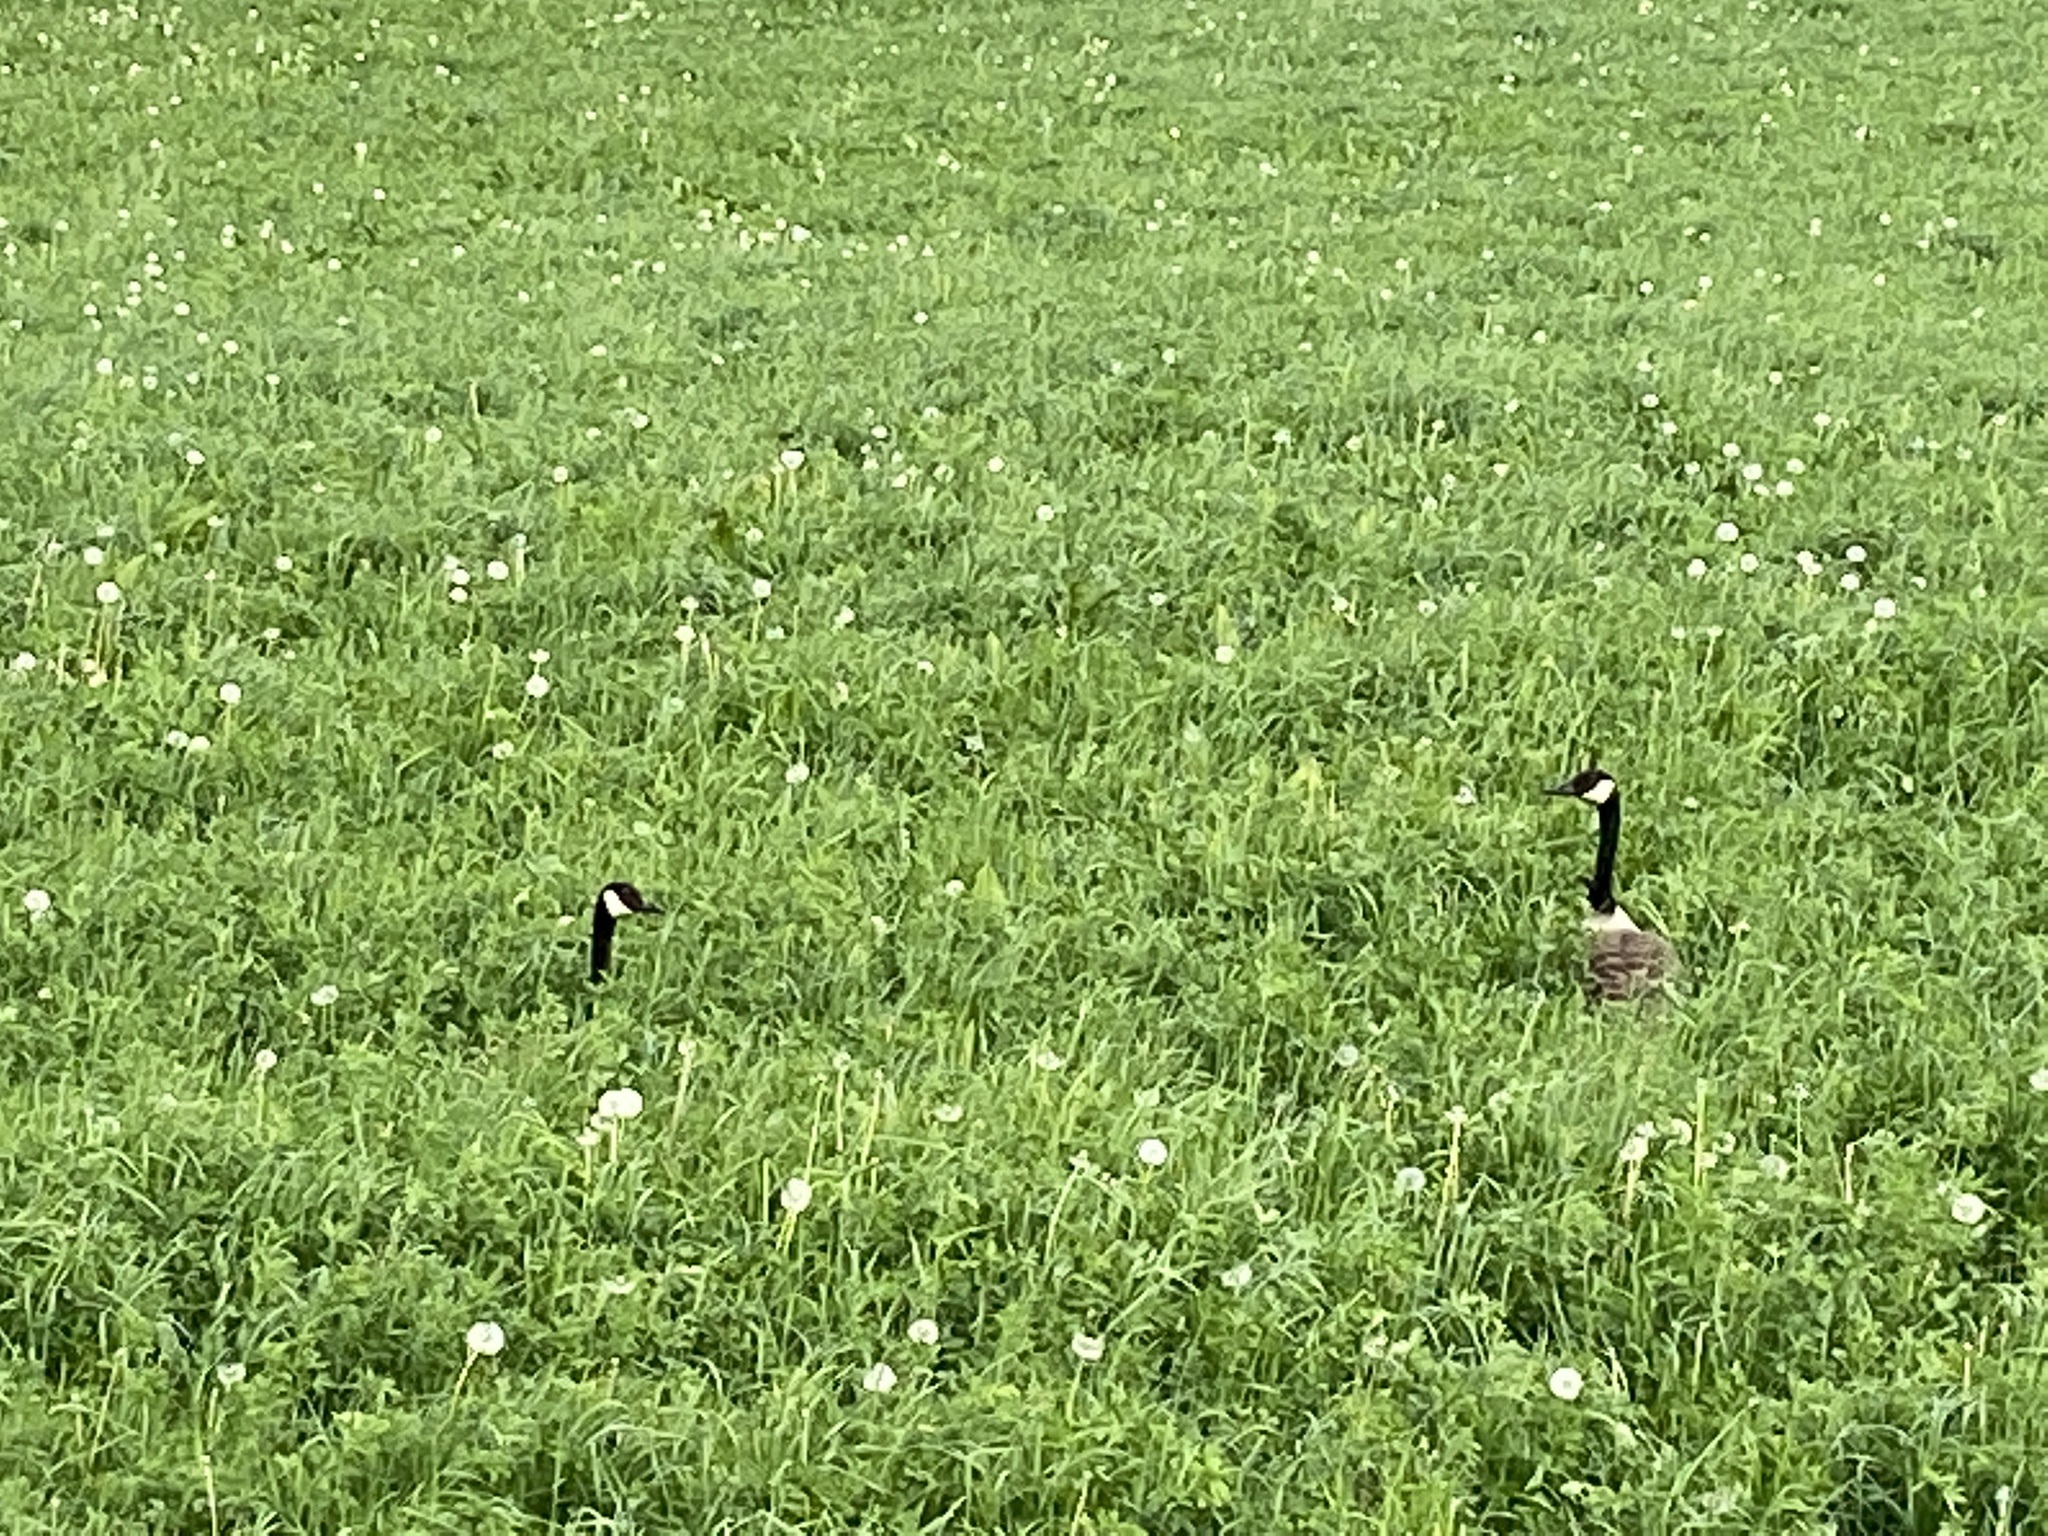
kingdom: Animalia
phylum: Chordata
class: Aves
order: Anseriformes
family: Anatidae
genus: Branta
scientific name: Branta canadensis
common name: Canada goose
